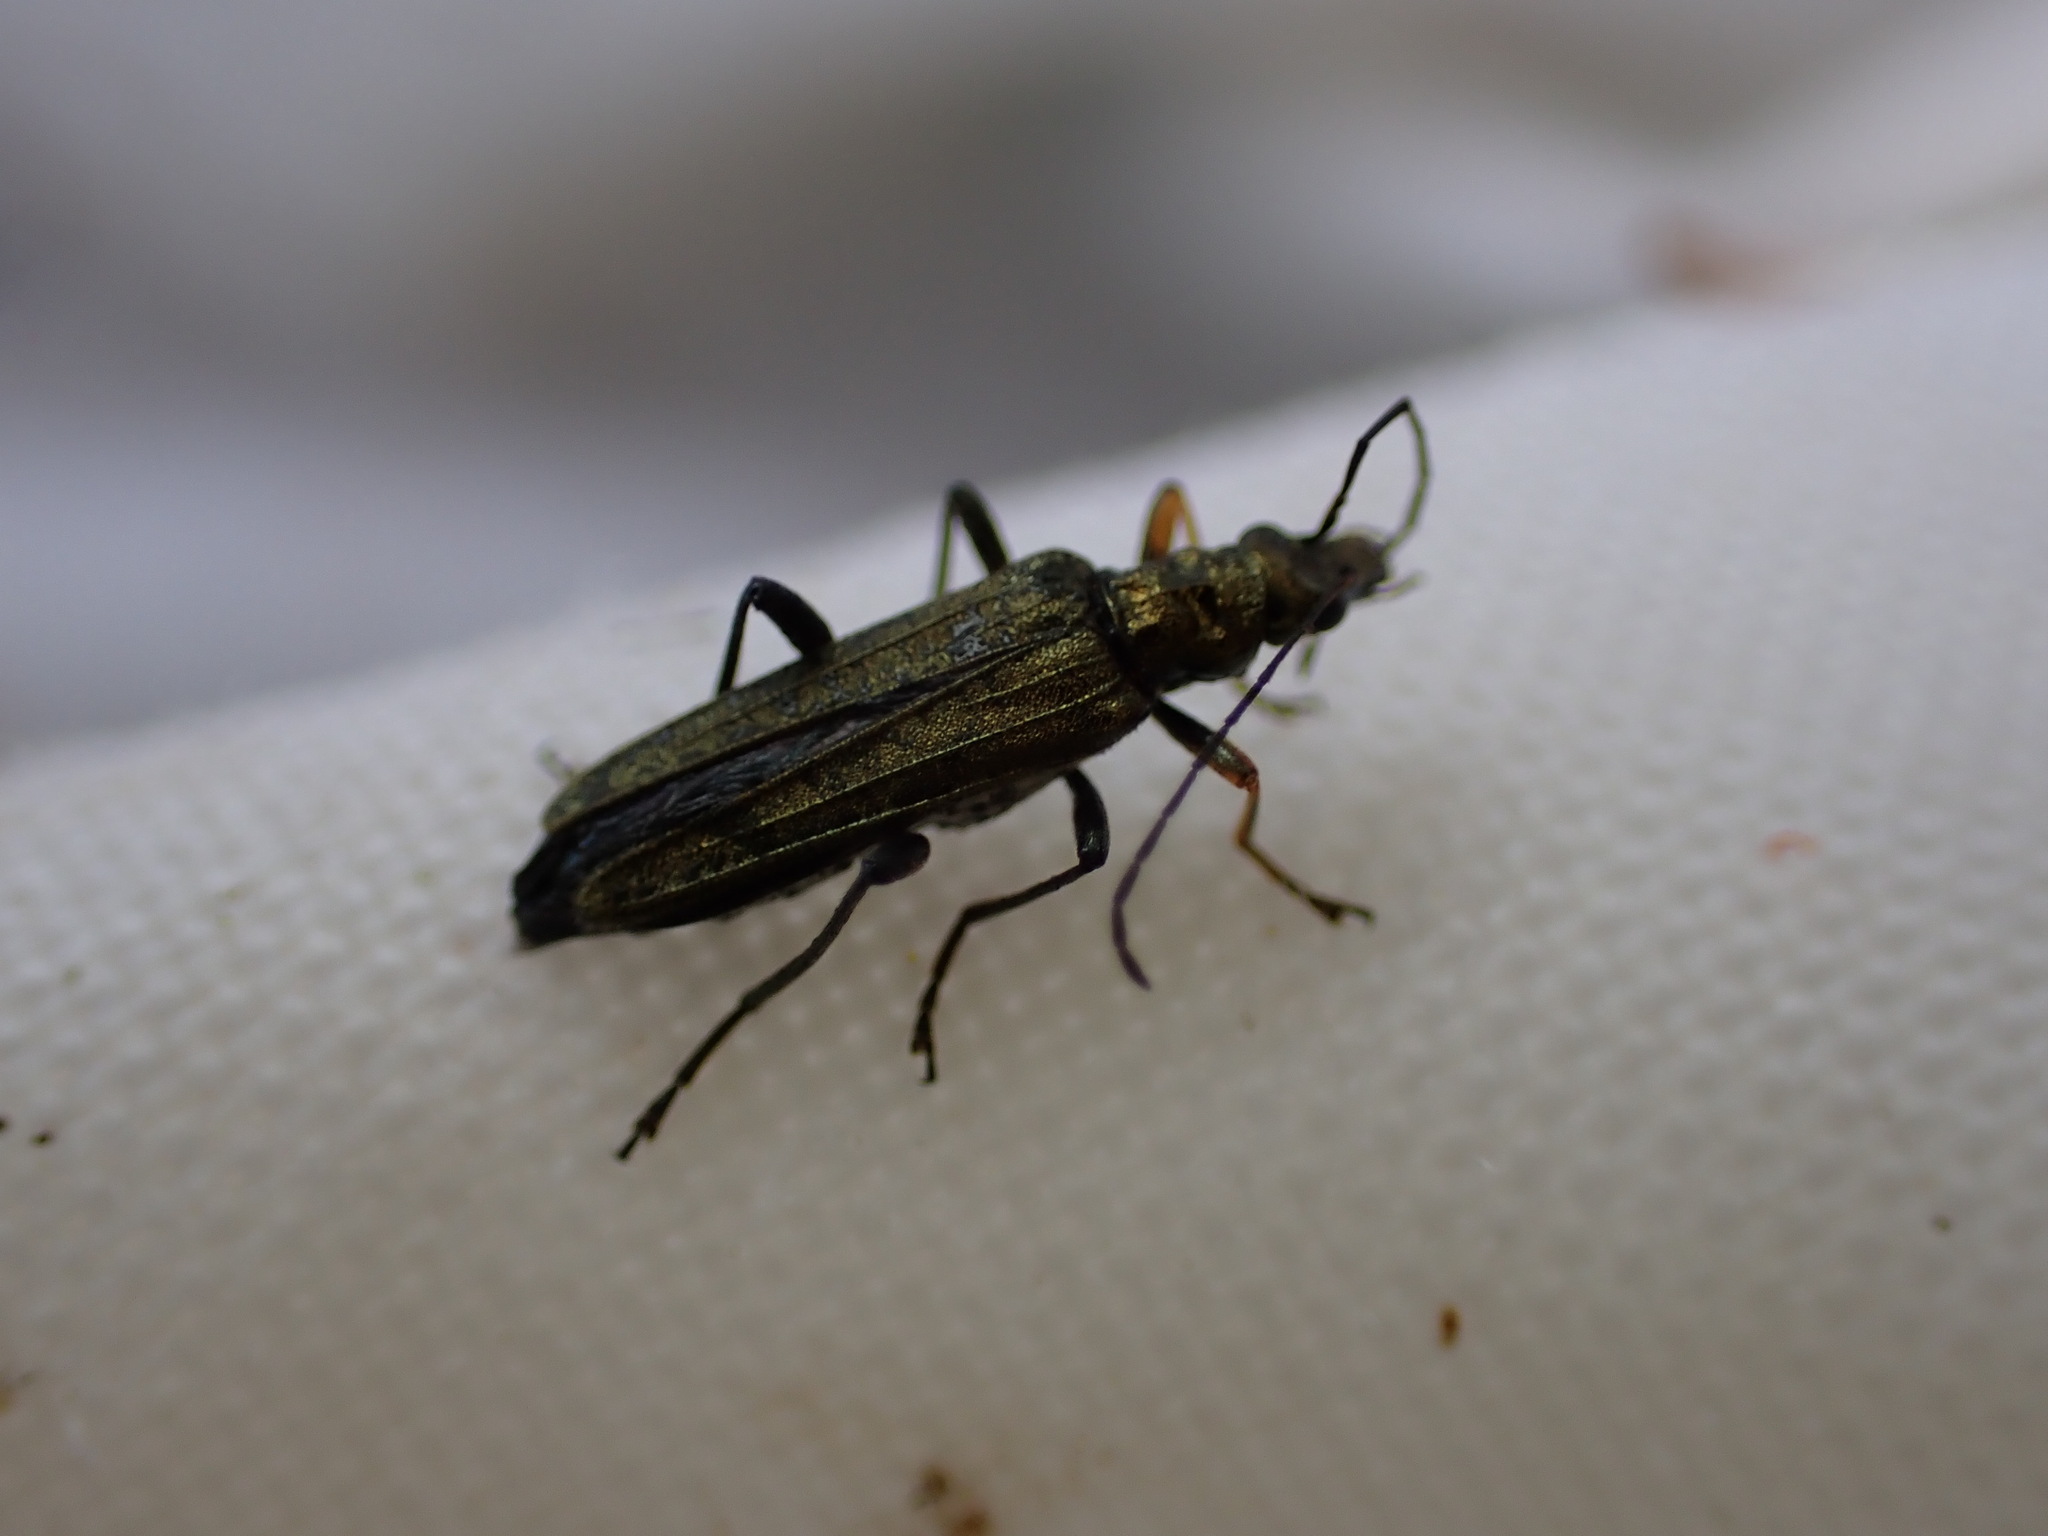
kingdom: Animalia
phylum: Arthropoda
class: Insecta
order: Coleoptera
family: Oedemeridae
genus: Oedemera
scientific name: Oedemera flavipes
